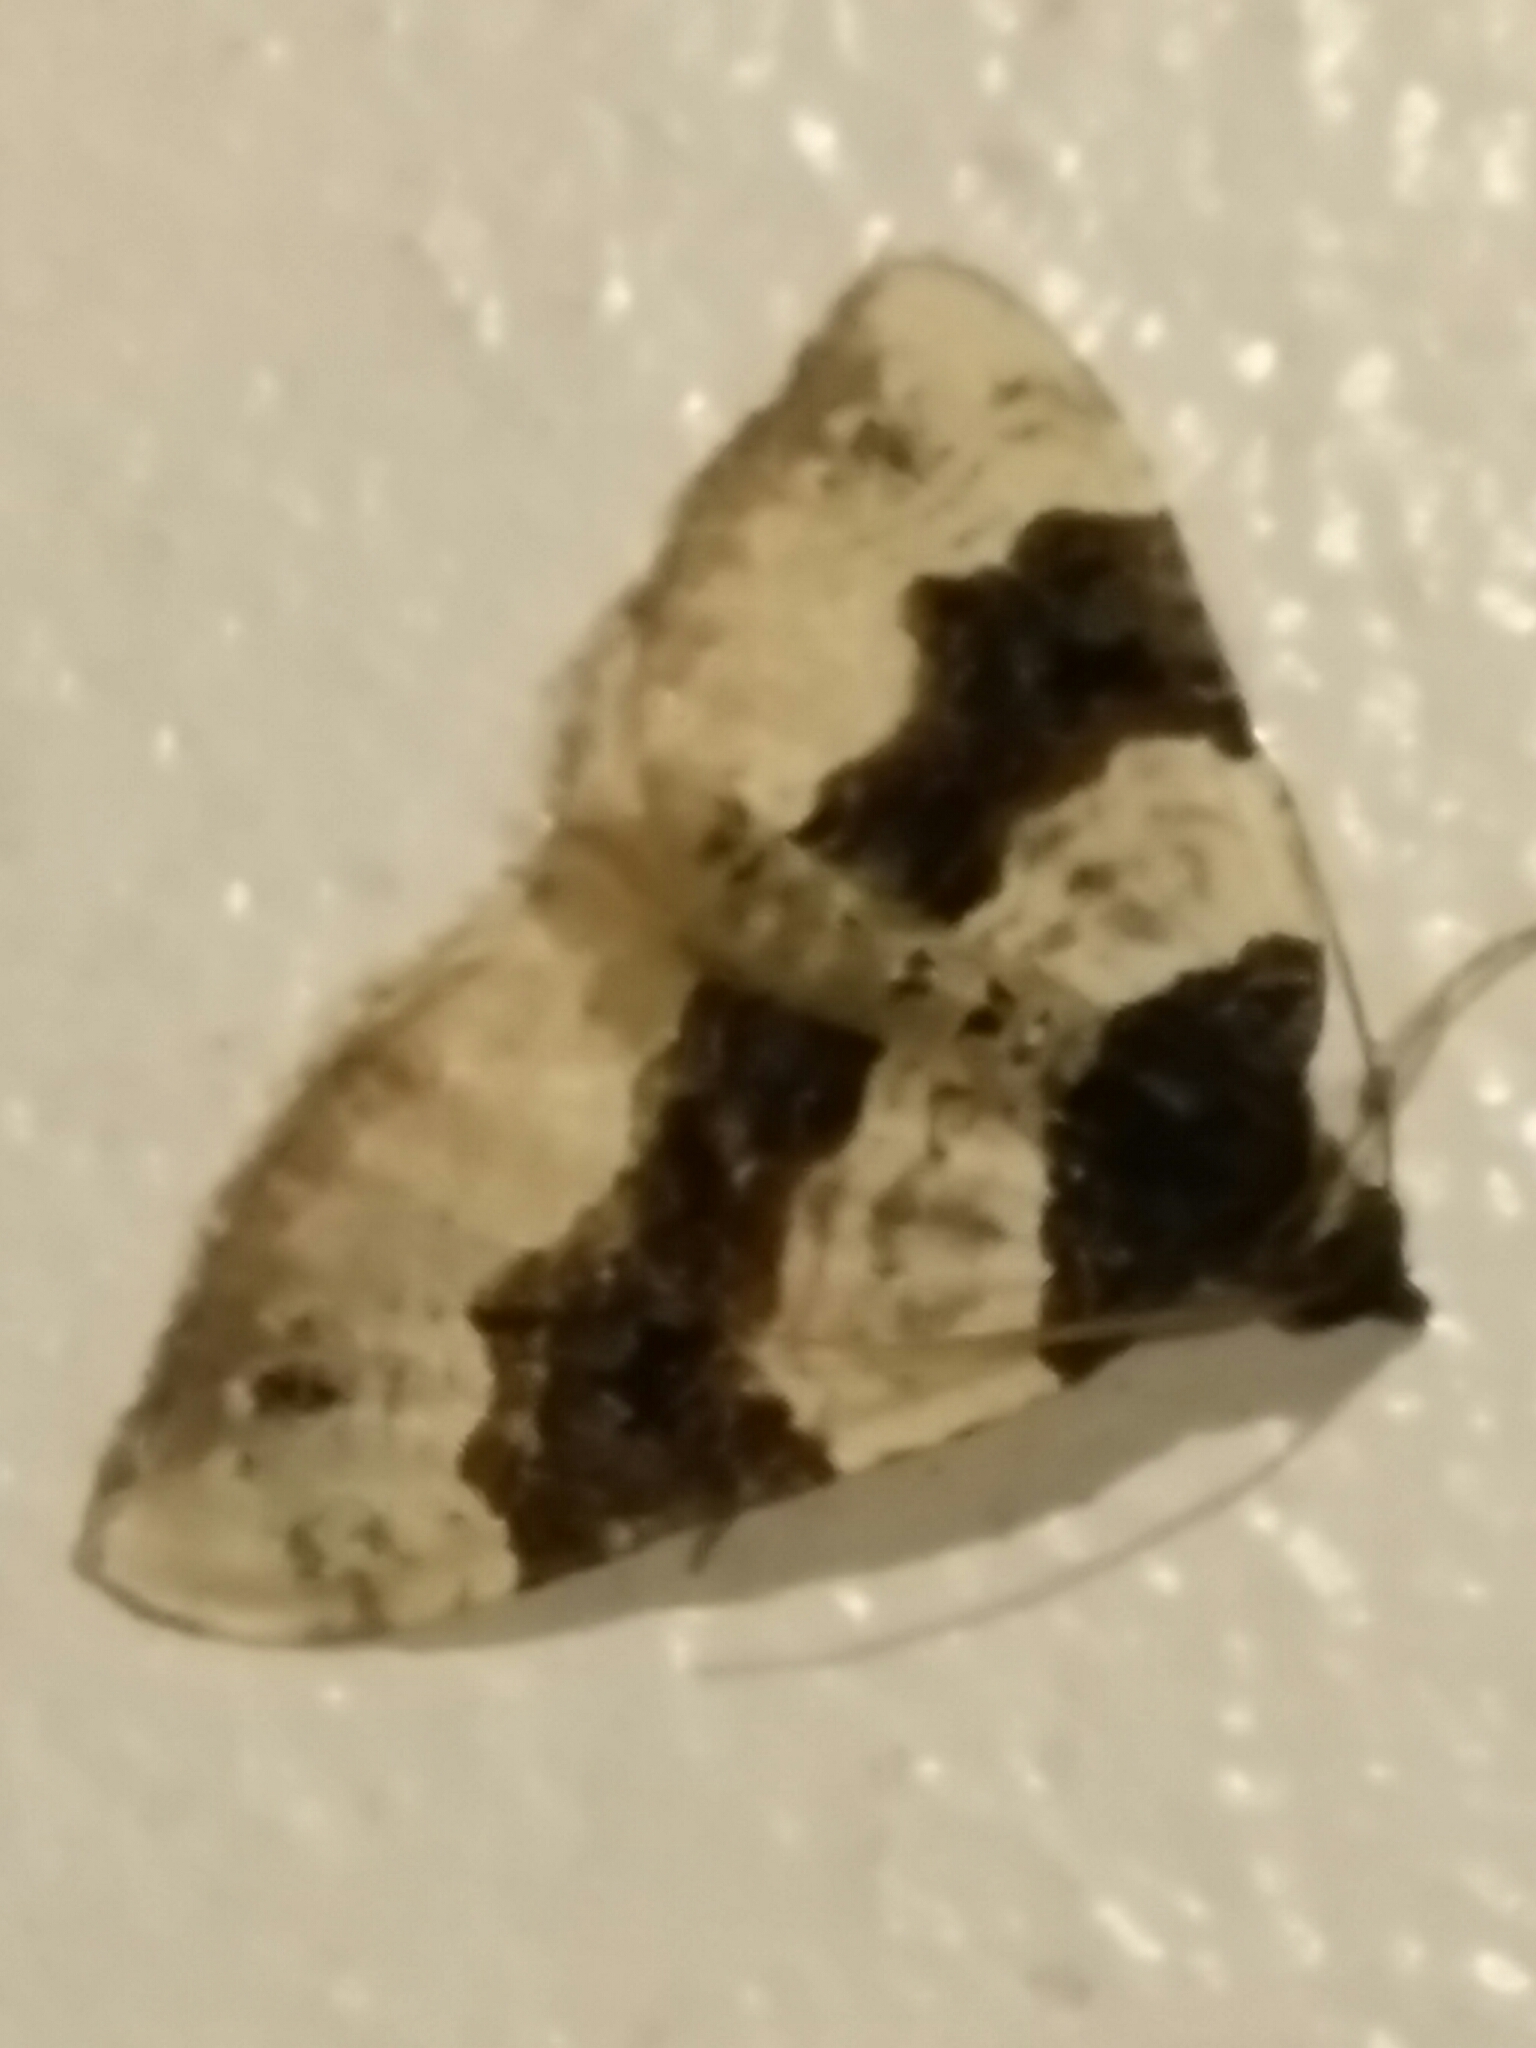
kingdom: Animalia
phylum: Arthropoda
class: Insecta
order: Lepidoptera
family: Geometridae
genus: Cosmorhoe
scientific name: Cosmorhoe ocellata
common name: Purple bar
